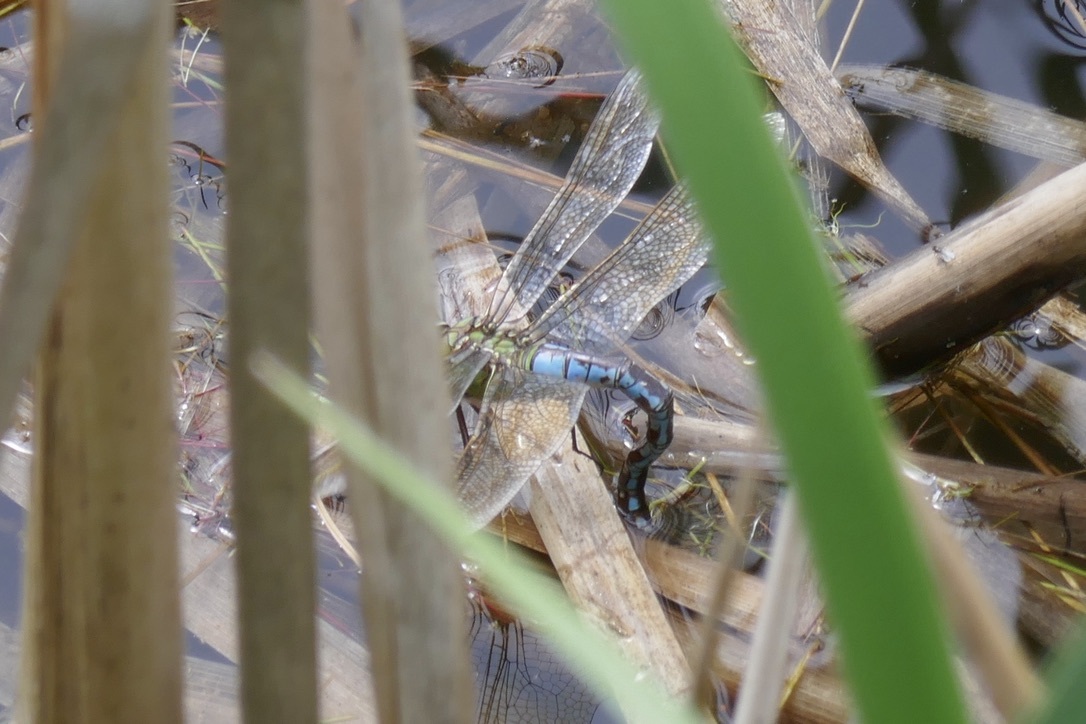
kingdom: Animalia
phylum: Arthropoda
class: Insecta
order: Odonata
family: Aeshnidae
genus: Anax
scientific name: Anax imperator
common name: Emperor dragonfly
